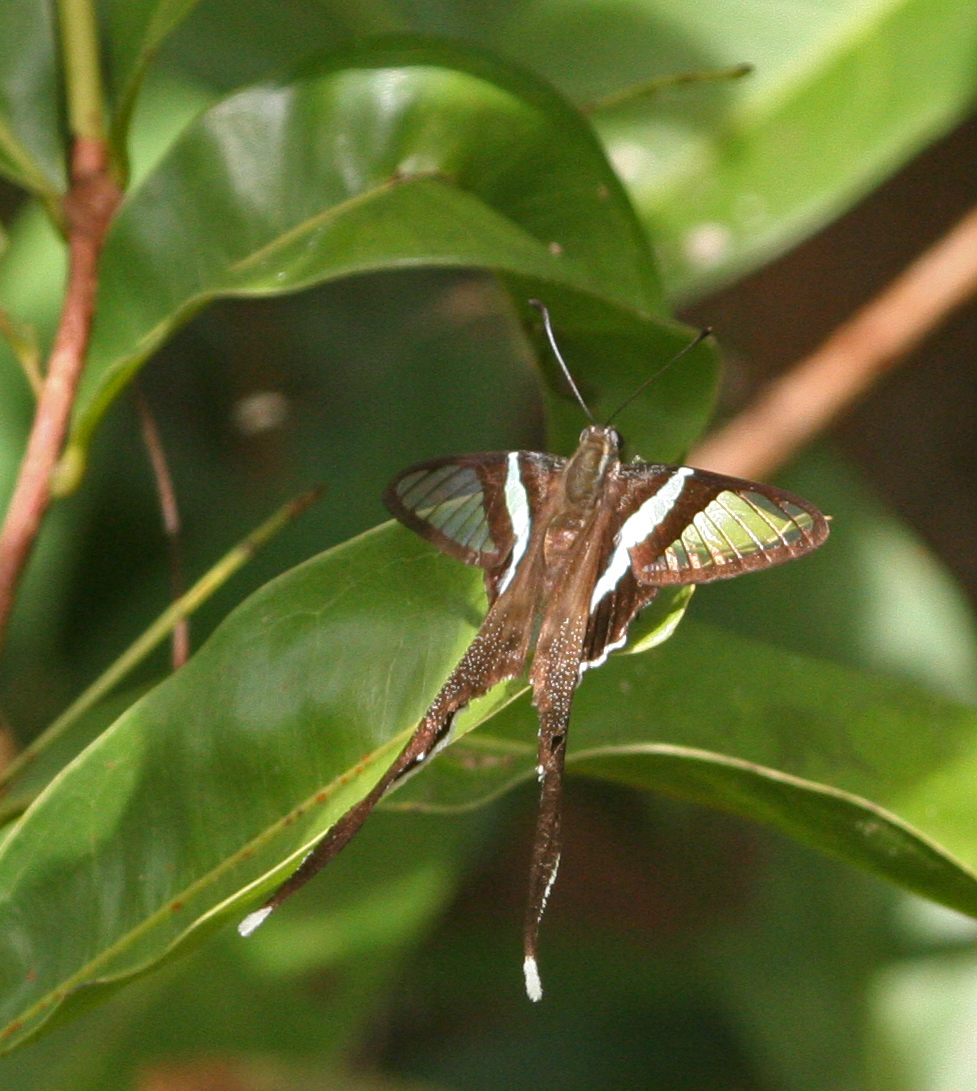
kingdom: Animalia
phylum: Arthropoda
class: Insecta
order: Lepidoptera
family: Papilionidae
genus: Lamproptera
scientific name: Lamproptera meges
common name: Green dragontail
